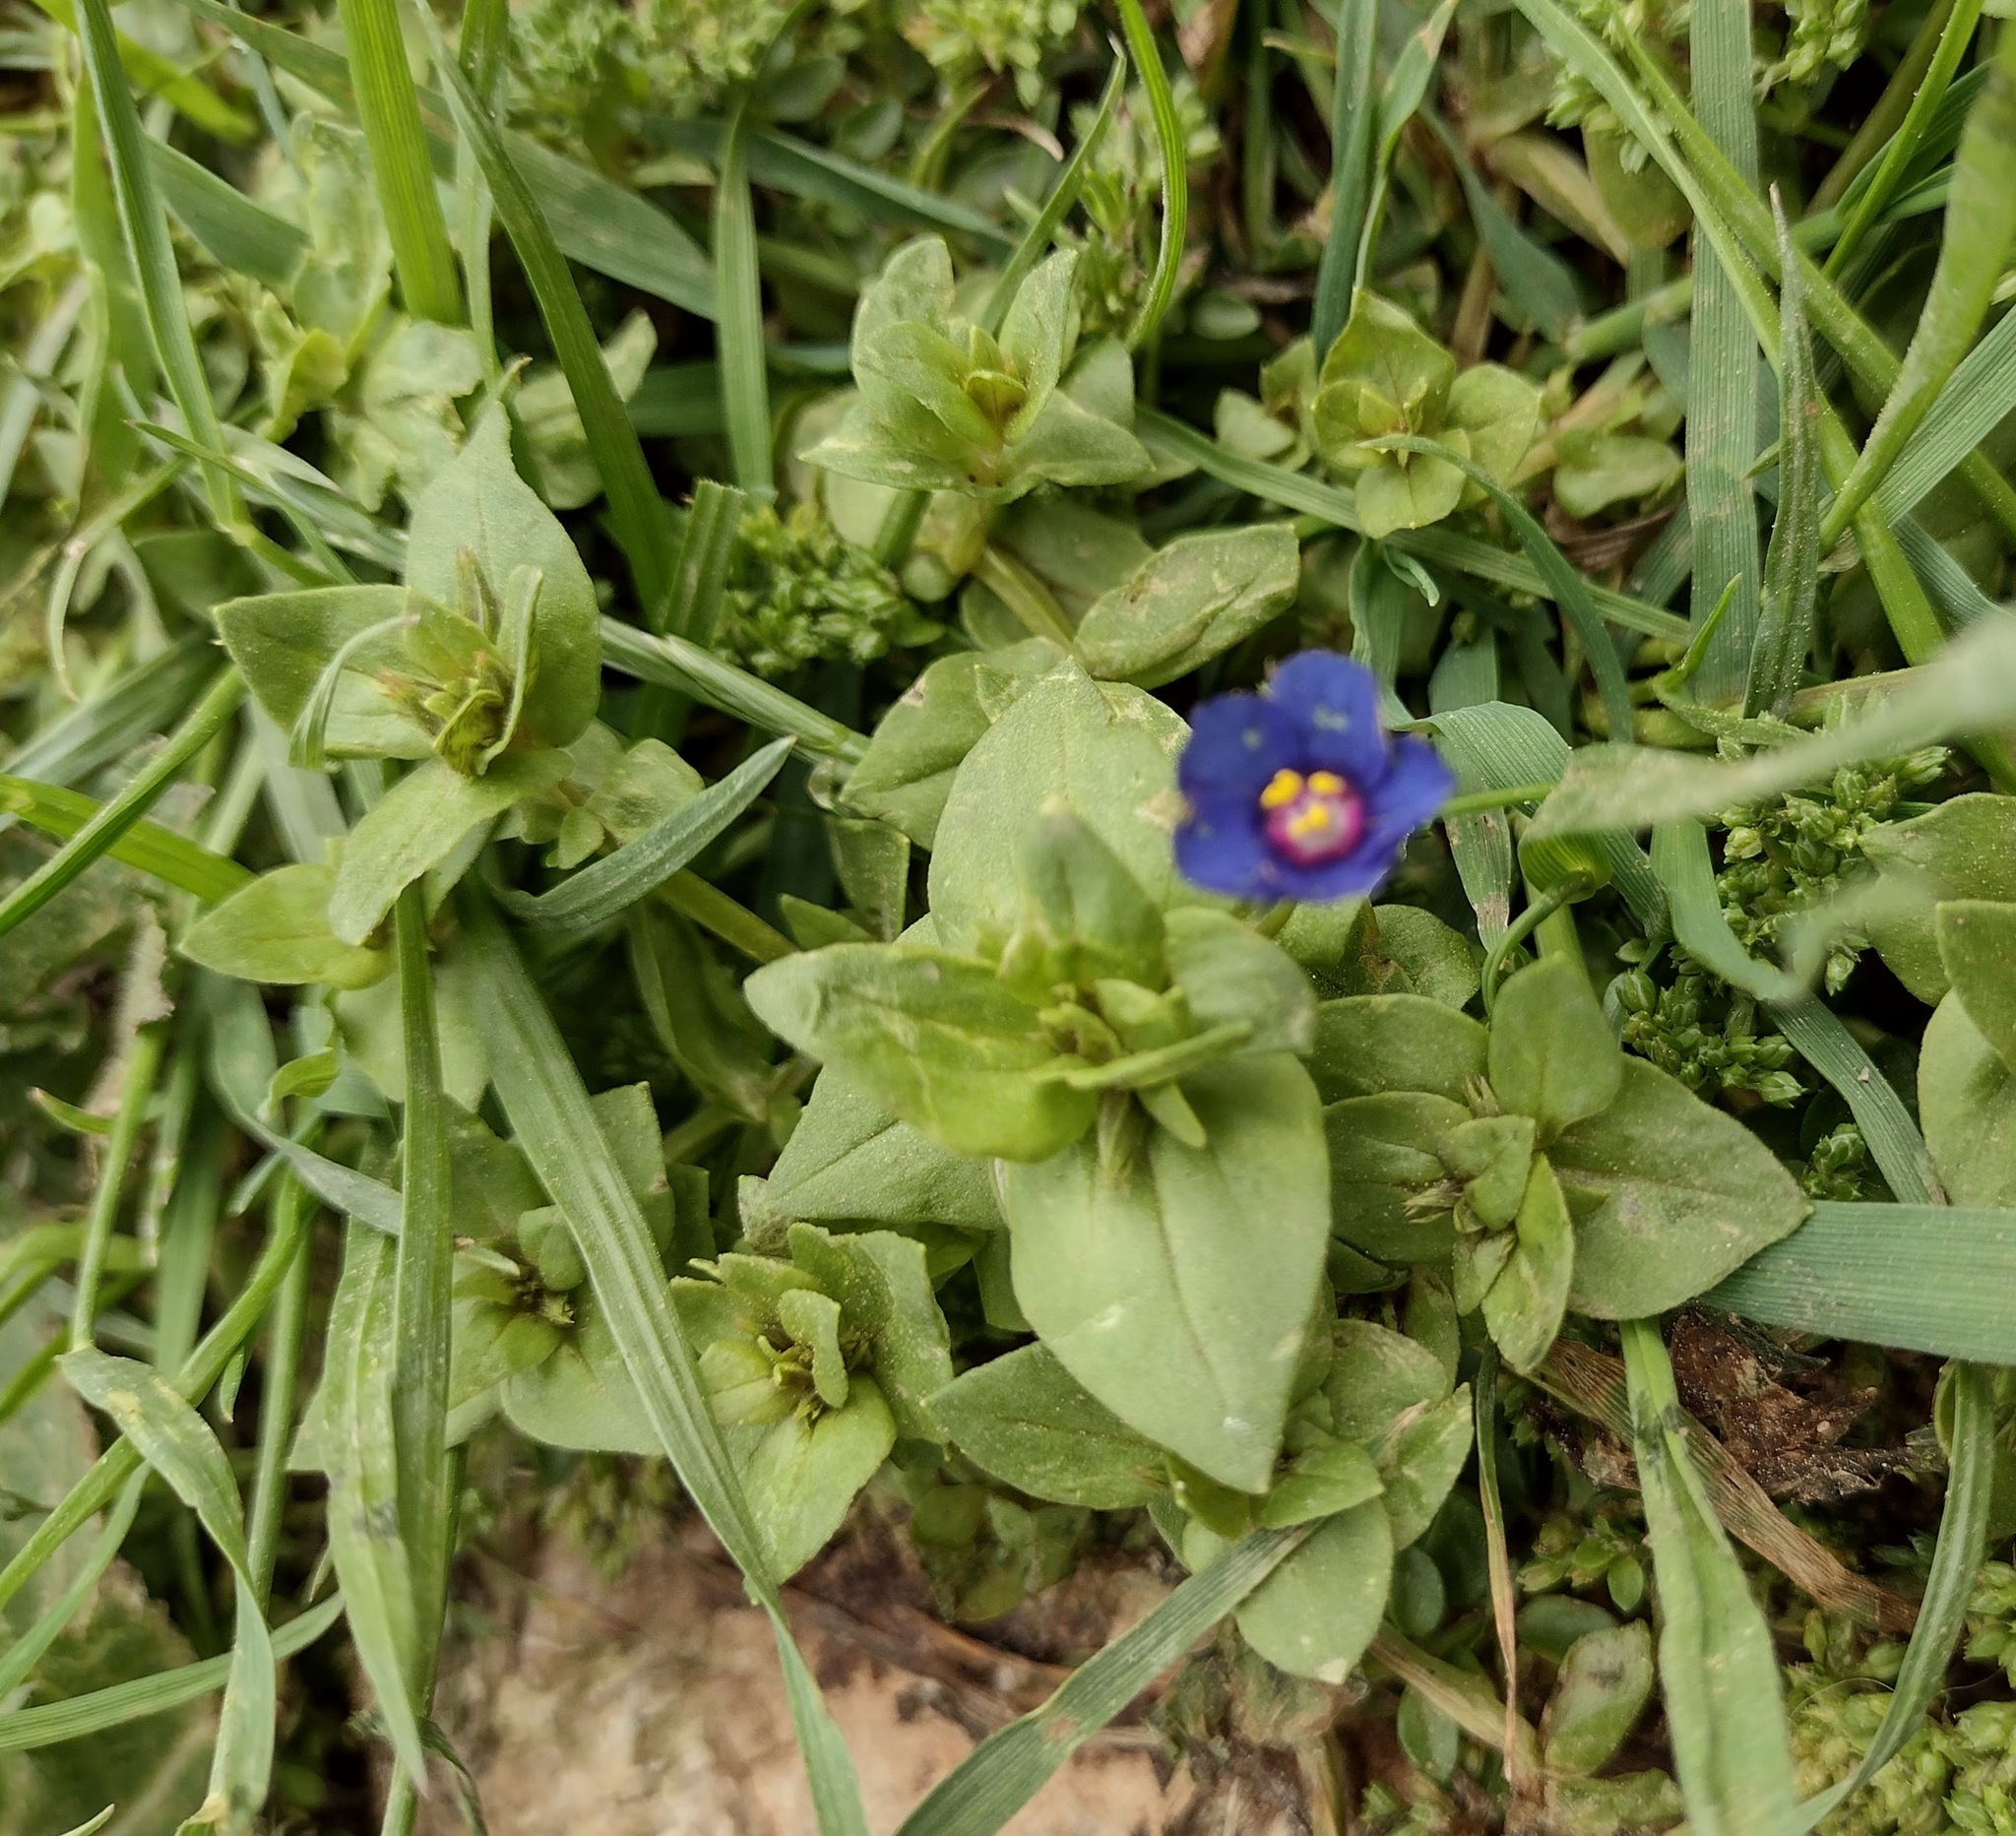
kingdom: Plantae
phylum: Tracheophyta
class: Magnoliopsida
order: Ericales
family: Primulaceae
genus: Lysimachia
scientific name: Lysimachia loeflingii
